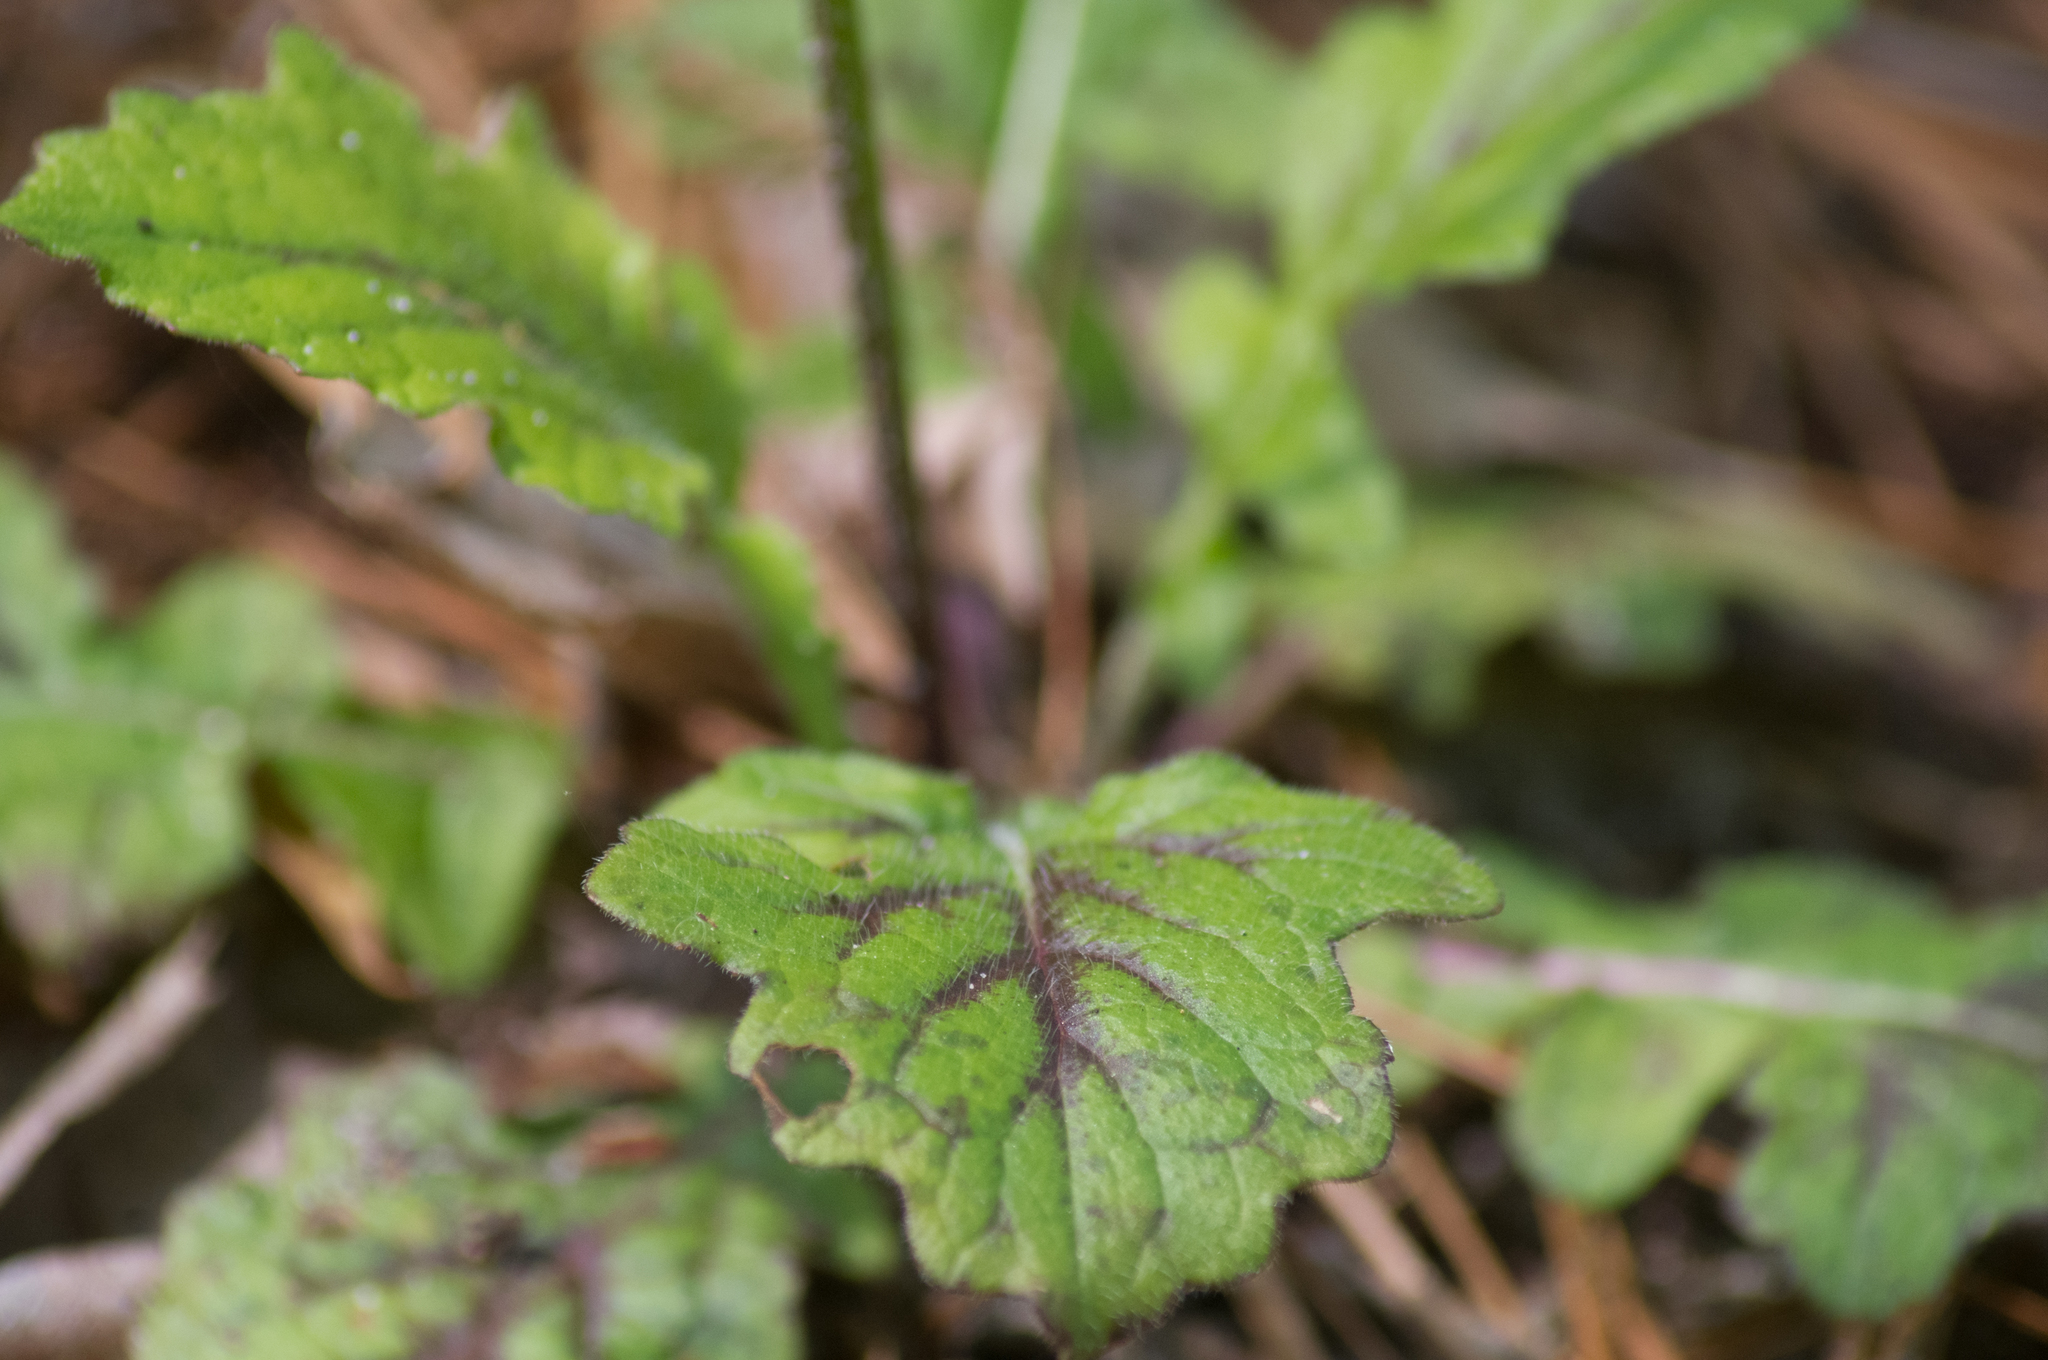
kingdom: Plantae
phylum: Tracheophyta
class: Magnoliopsida
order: Lamiales
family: Lamiaceae
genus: Salvia
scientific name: Salvia lyrata
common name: Cancerweed
